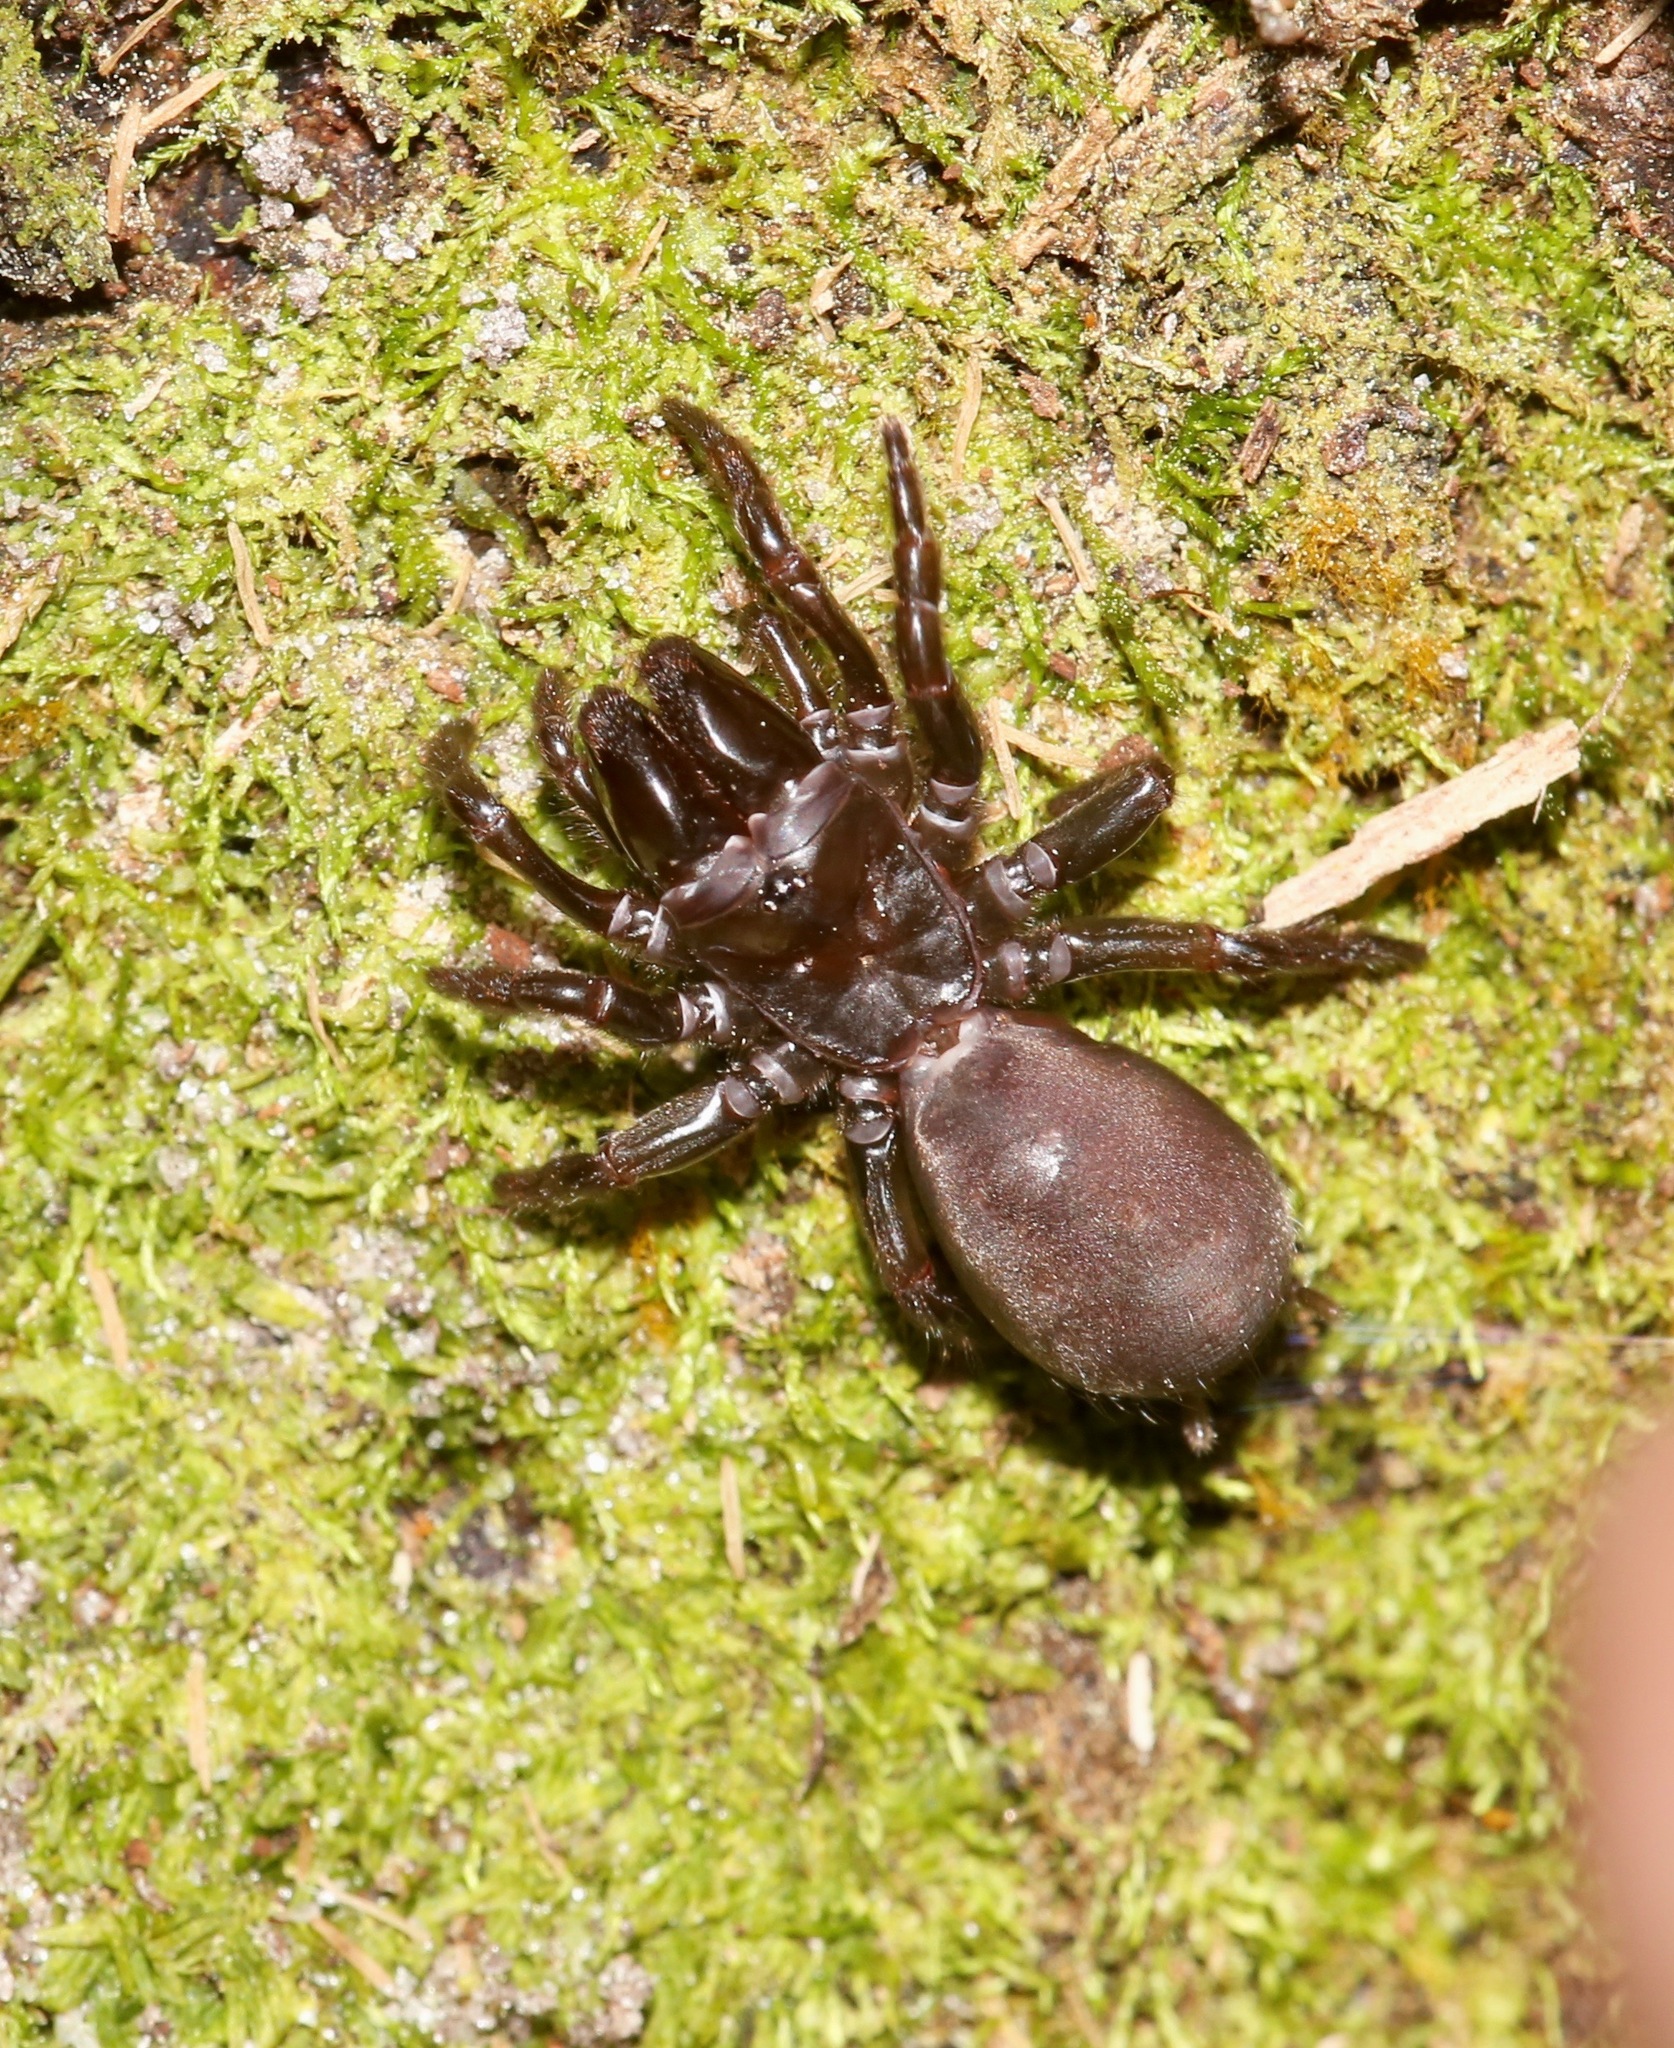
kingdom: Animalia
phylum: Arthropoda
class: Arachnida
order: Araneae
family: Atypidae
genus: Sphodros
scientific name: Sphodros abboti
